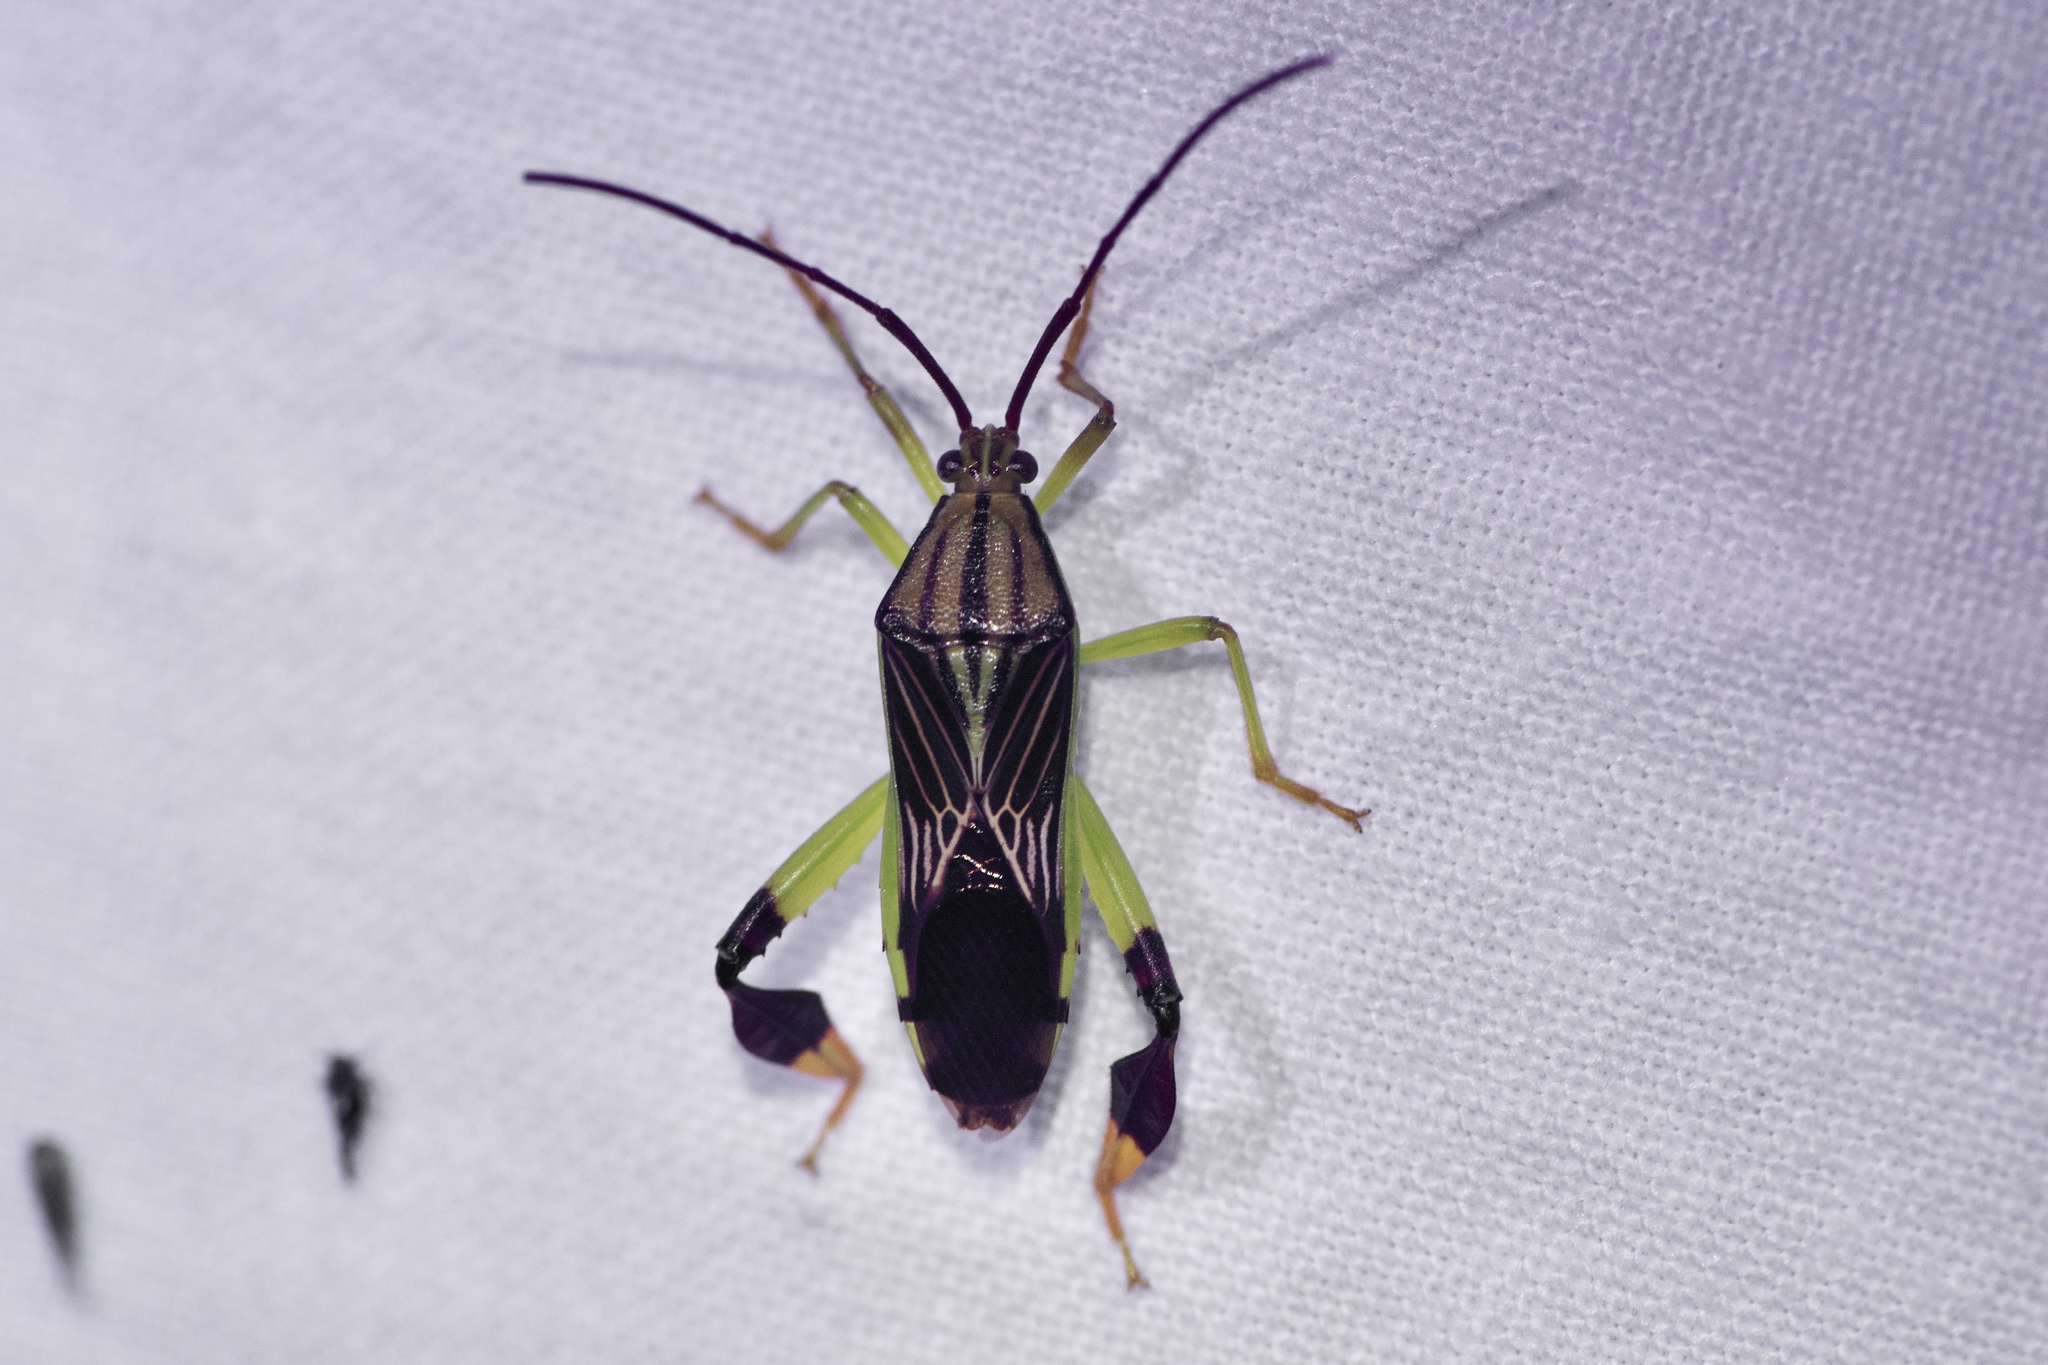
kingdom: Animalia
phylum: Arthropoda
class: Insecta
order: Hemiptera
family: Coreidae
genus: Melucha
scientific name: Melucha quinquelineata
